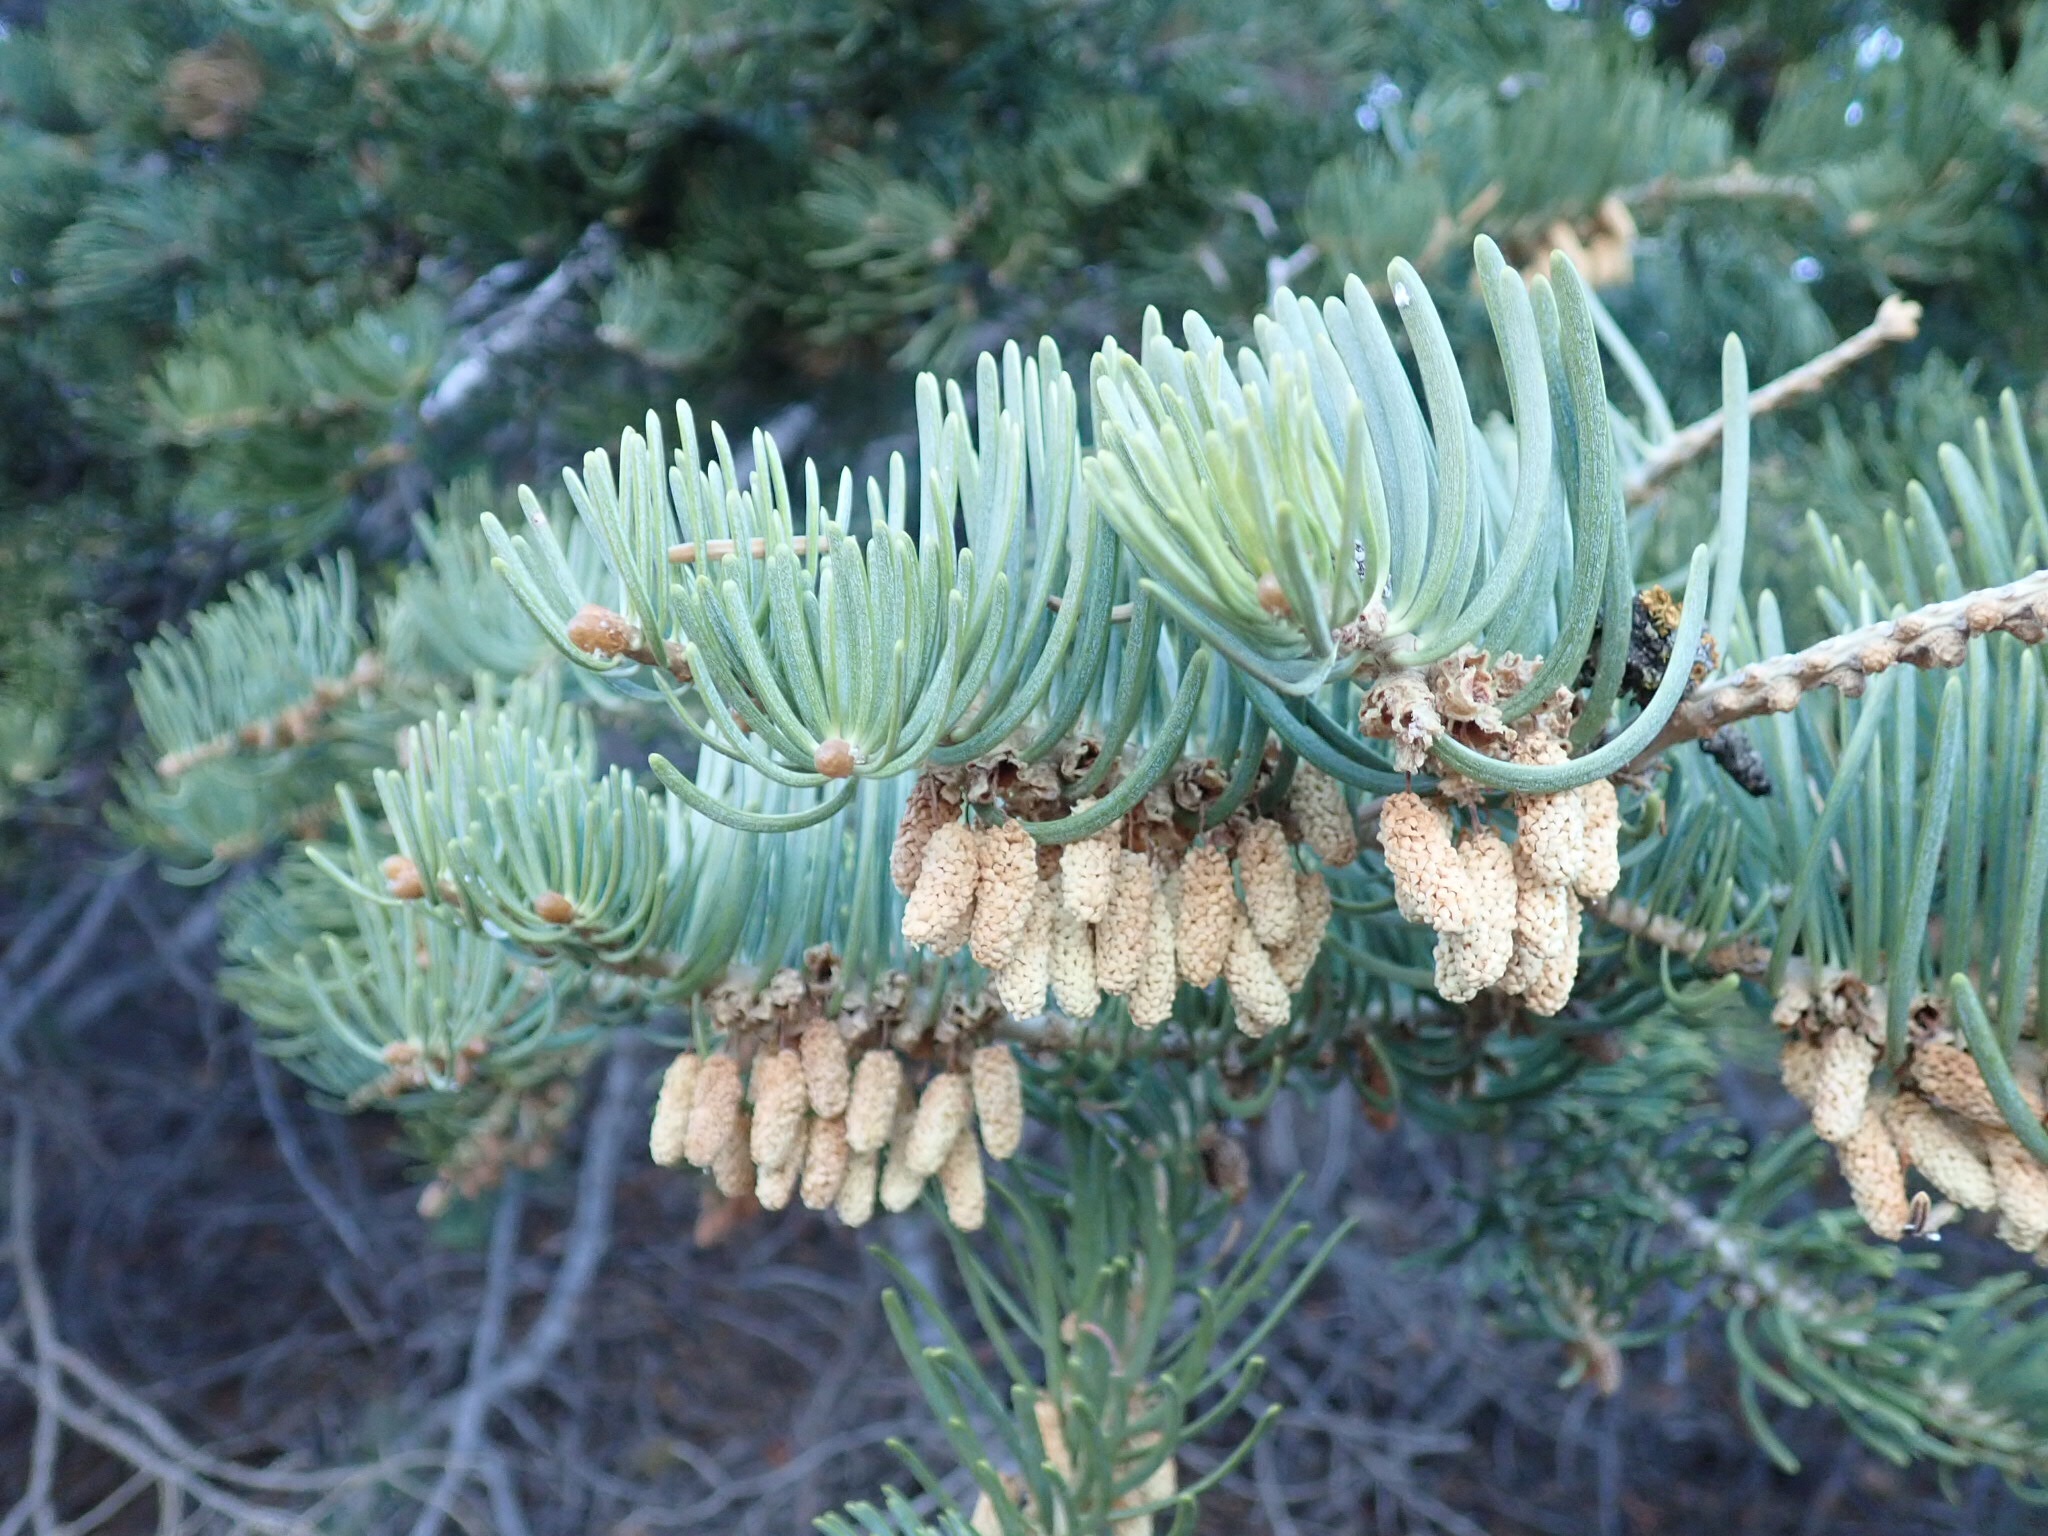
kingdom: Plantae
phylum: Tracheophyta
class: Pinopsida
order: Pinales
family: Pinaceae
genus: Abies
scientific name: Abies concolor
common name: Colorado fir
